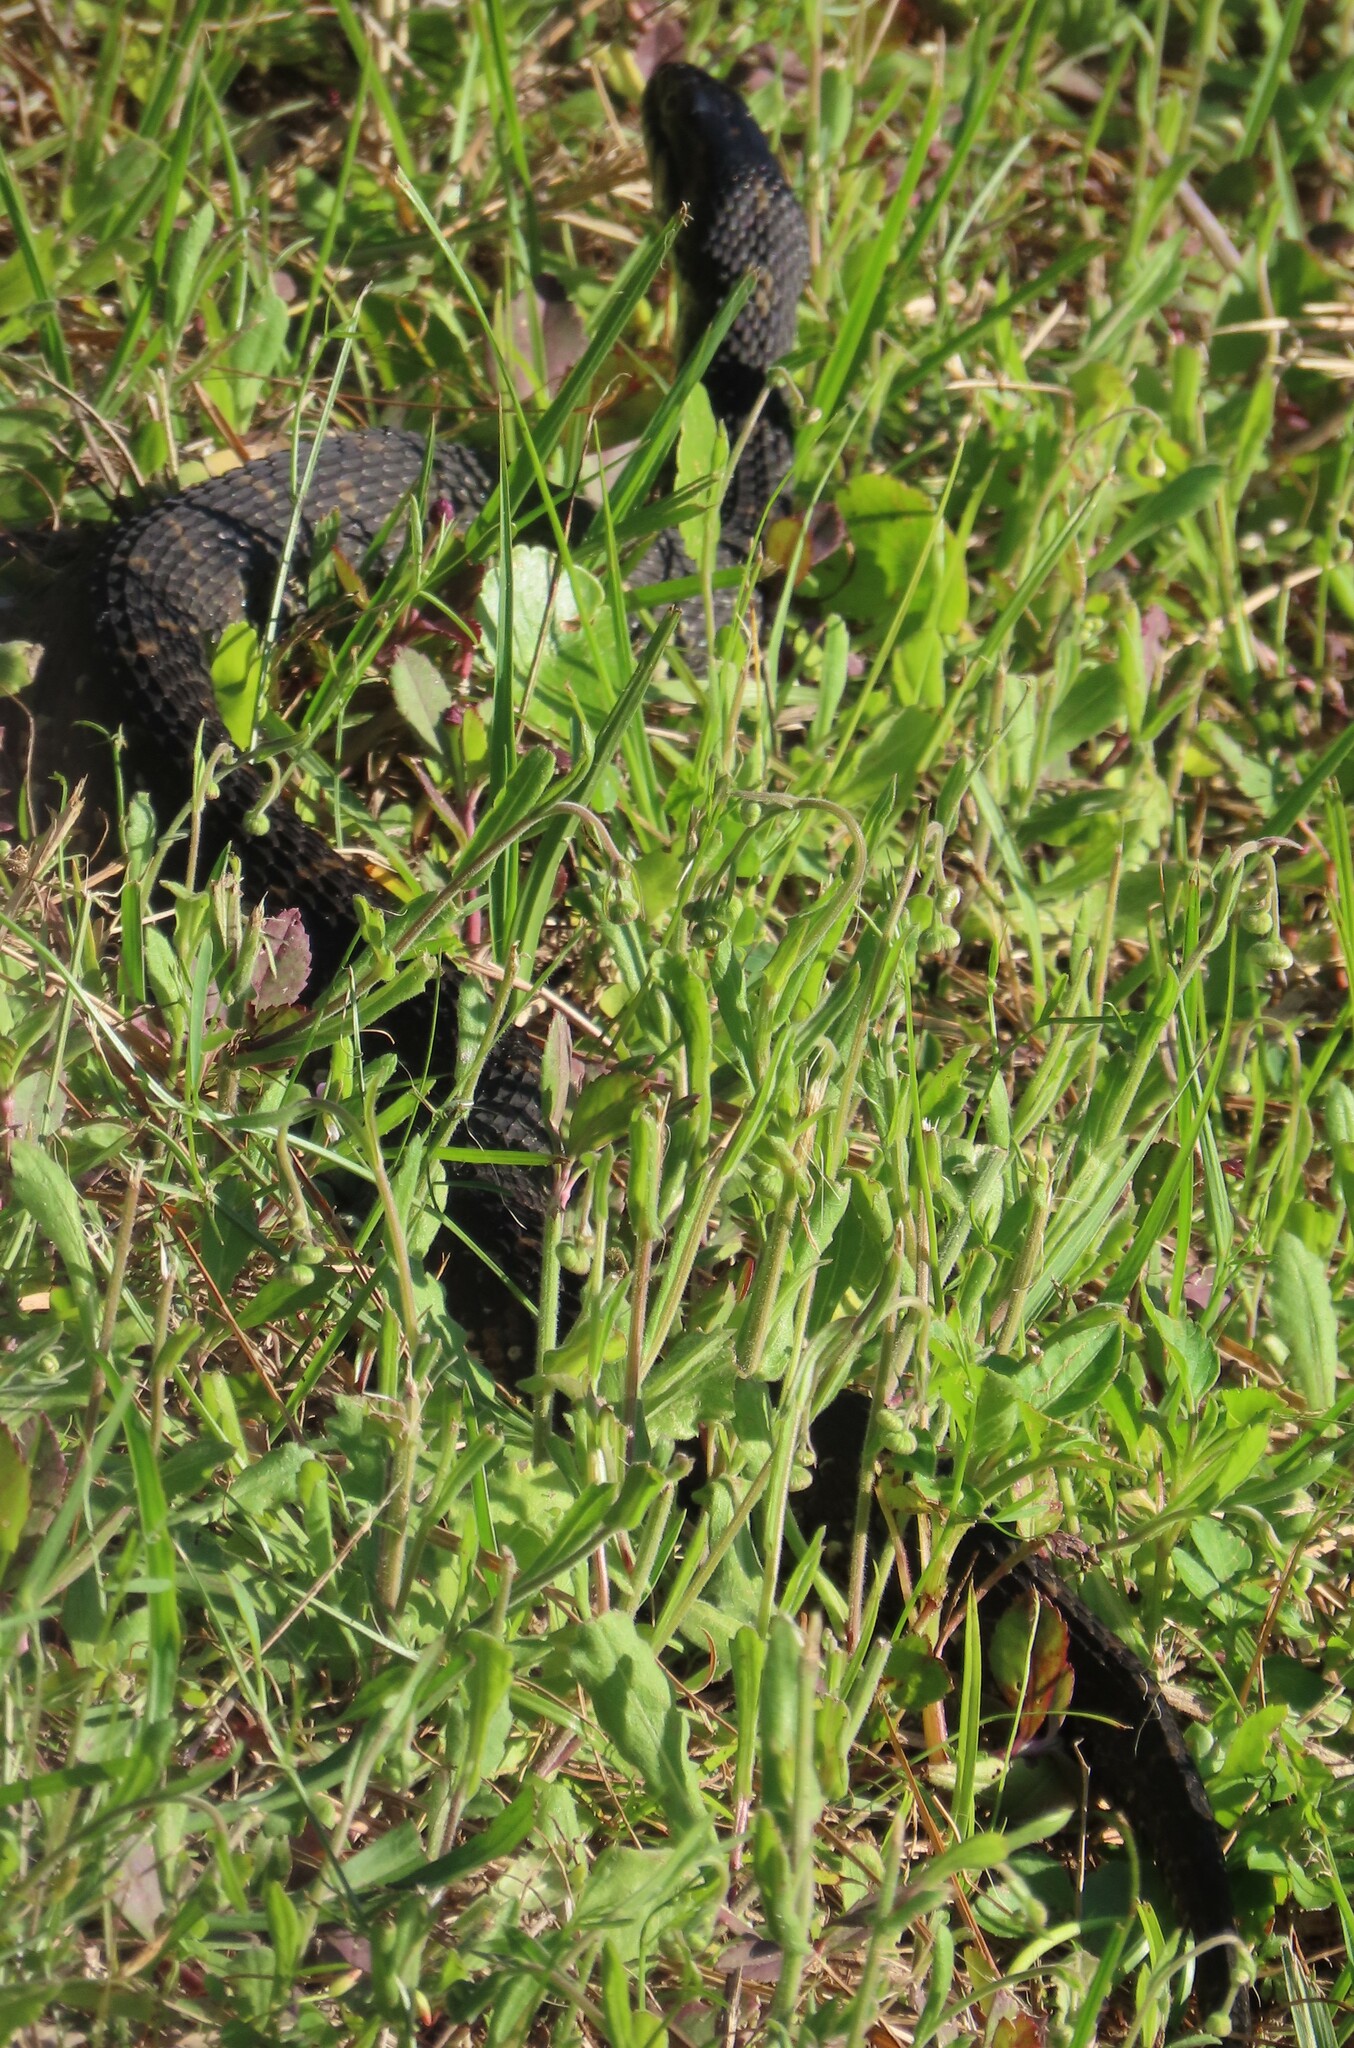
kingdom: Animalia
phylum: Chordata
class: Squamata
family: Colubridae
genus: Nerodia
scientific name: Nerodia fasciata
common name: Southern water snake
